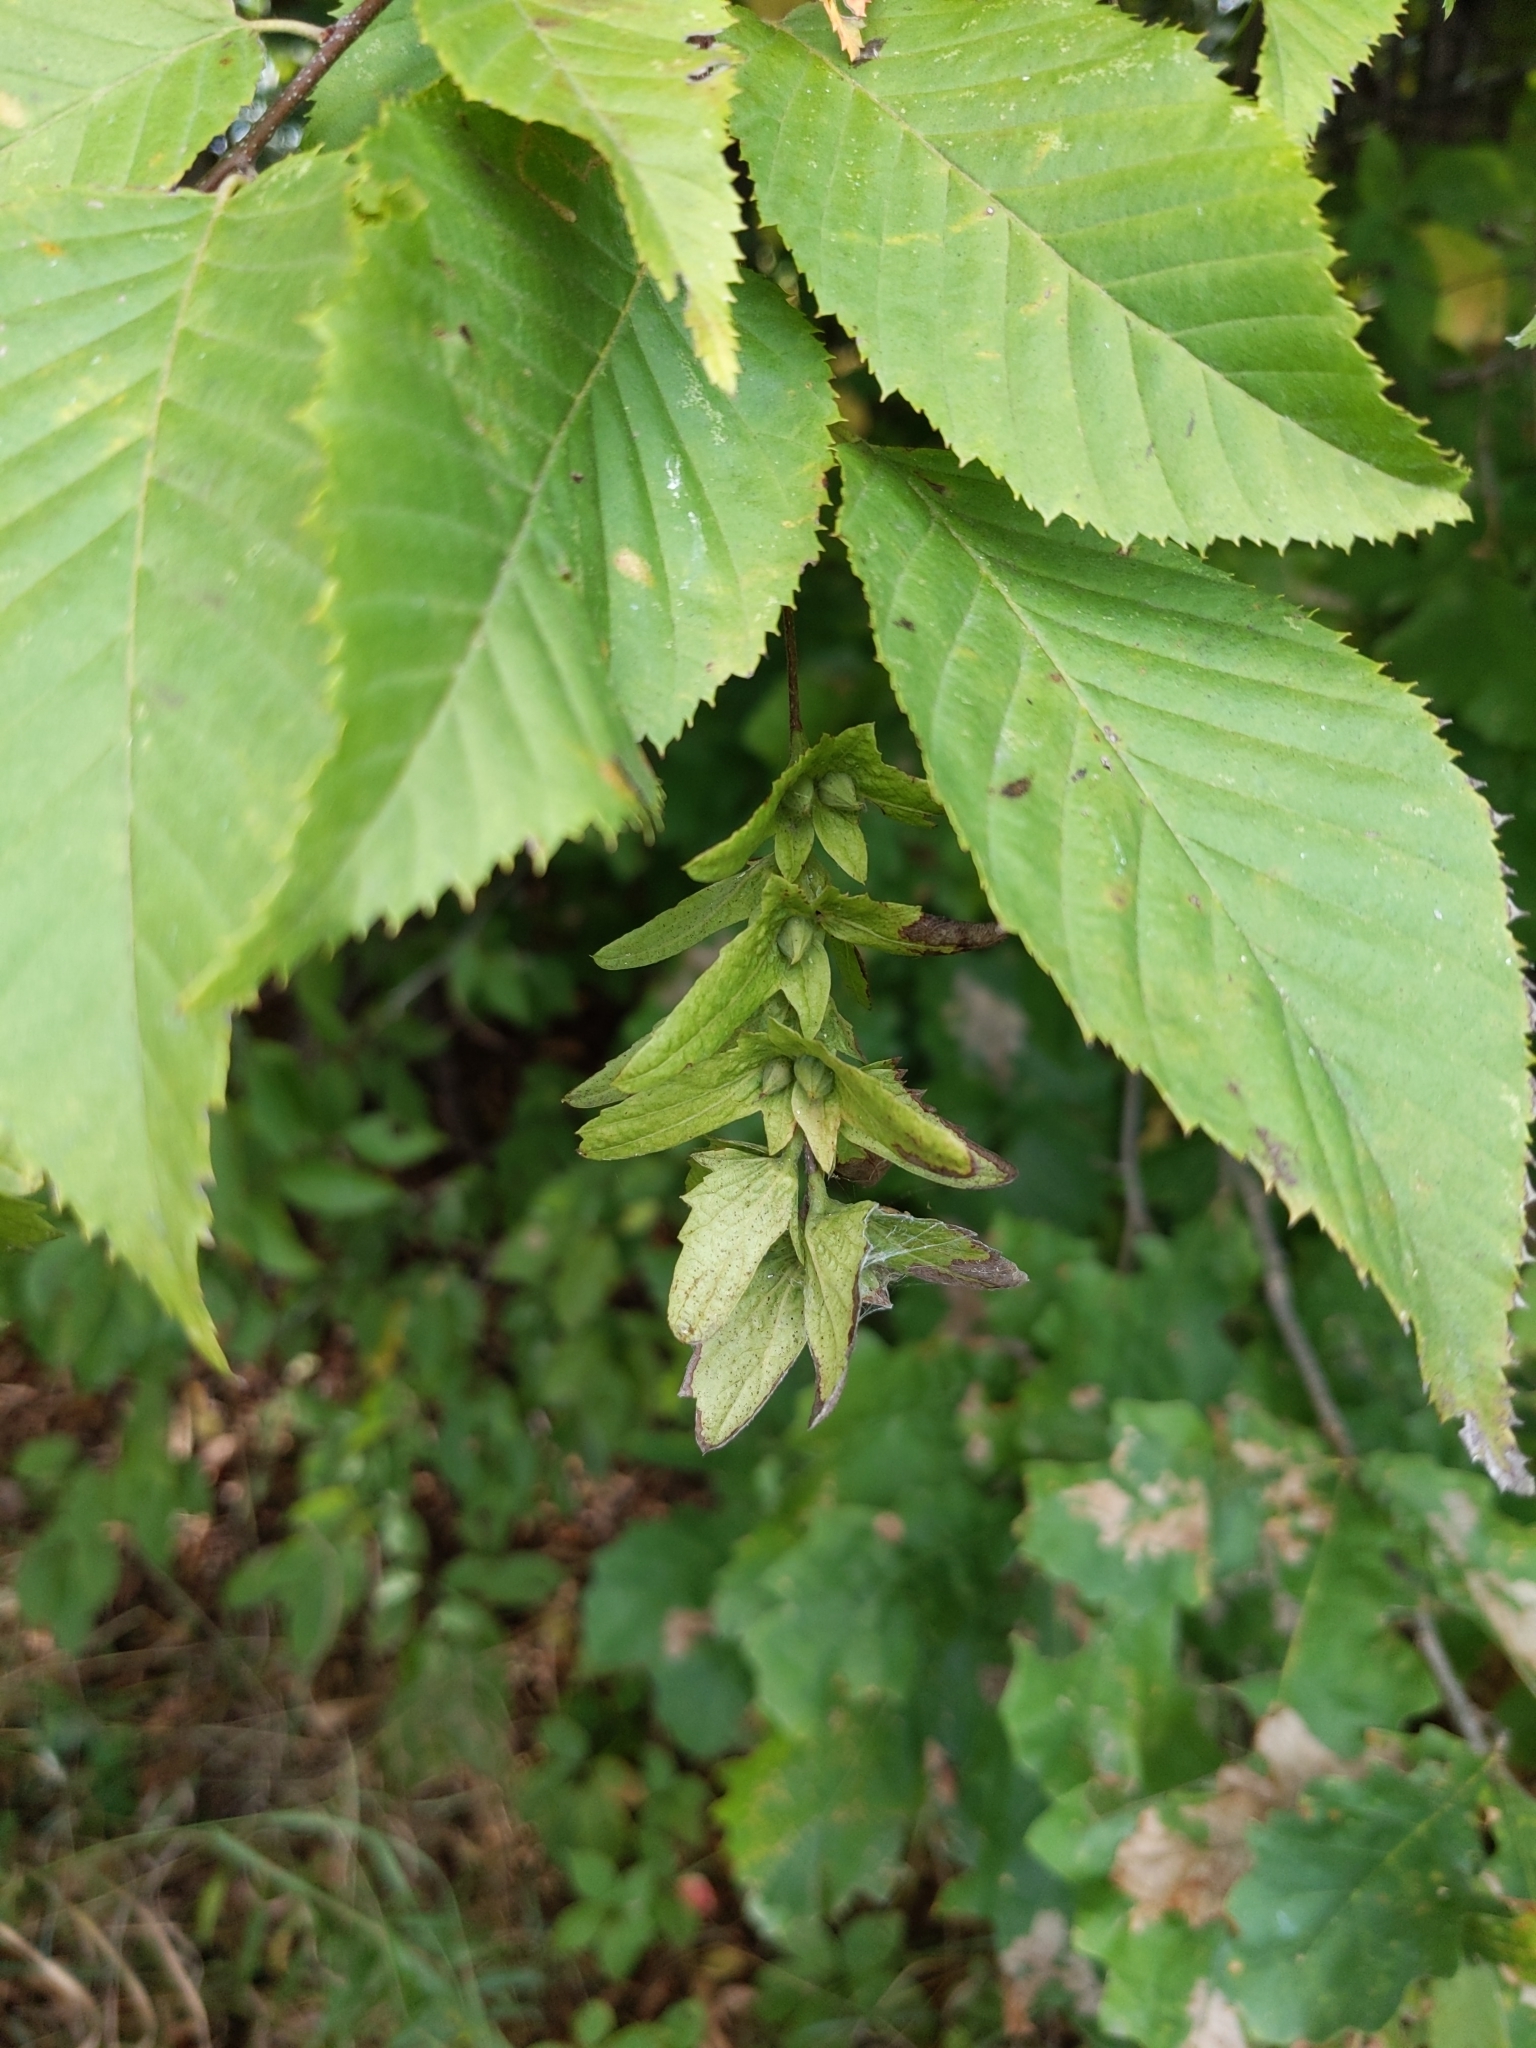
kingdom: Plantae
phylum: Tracheophyta
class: Magnoliopsida
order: Fagales
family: Betulaceae
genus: Carpinus
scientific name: Carpinus caroliniana
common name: American hornbeam
